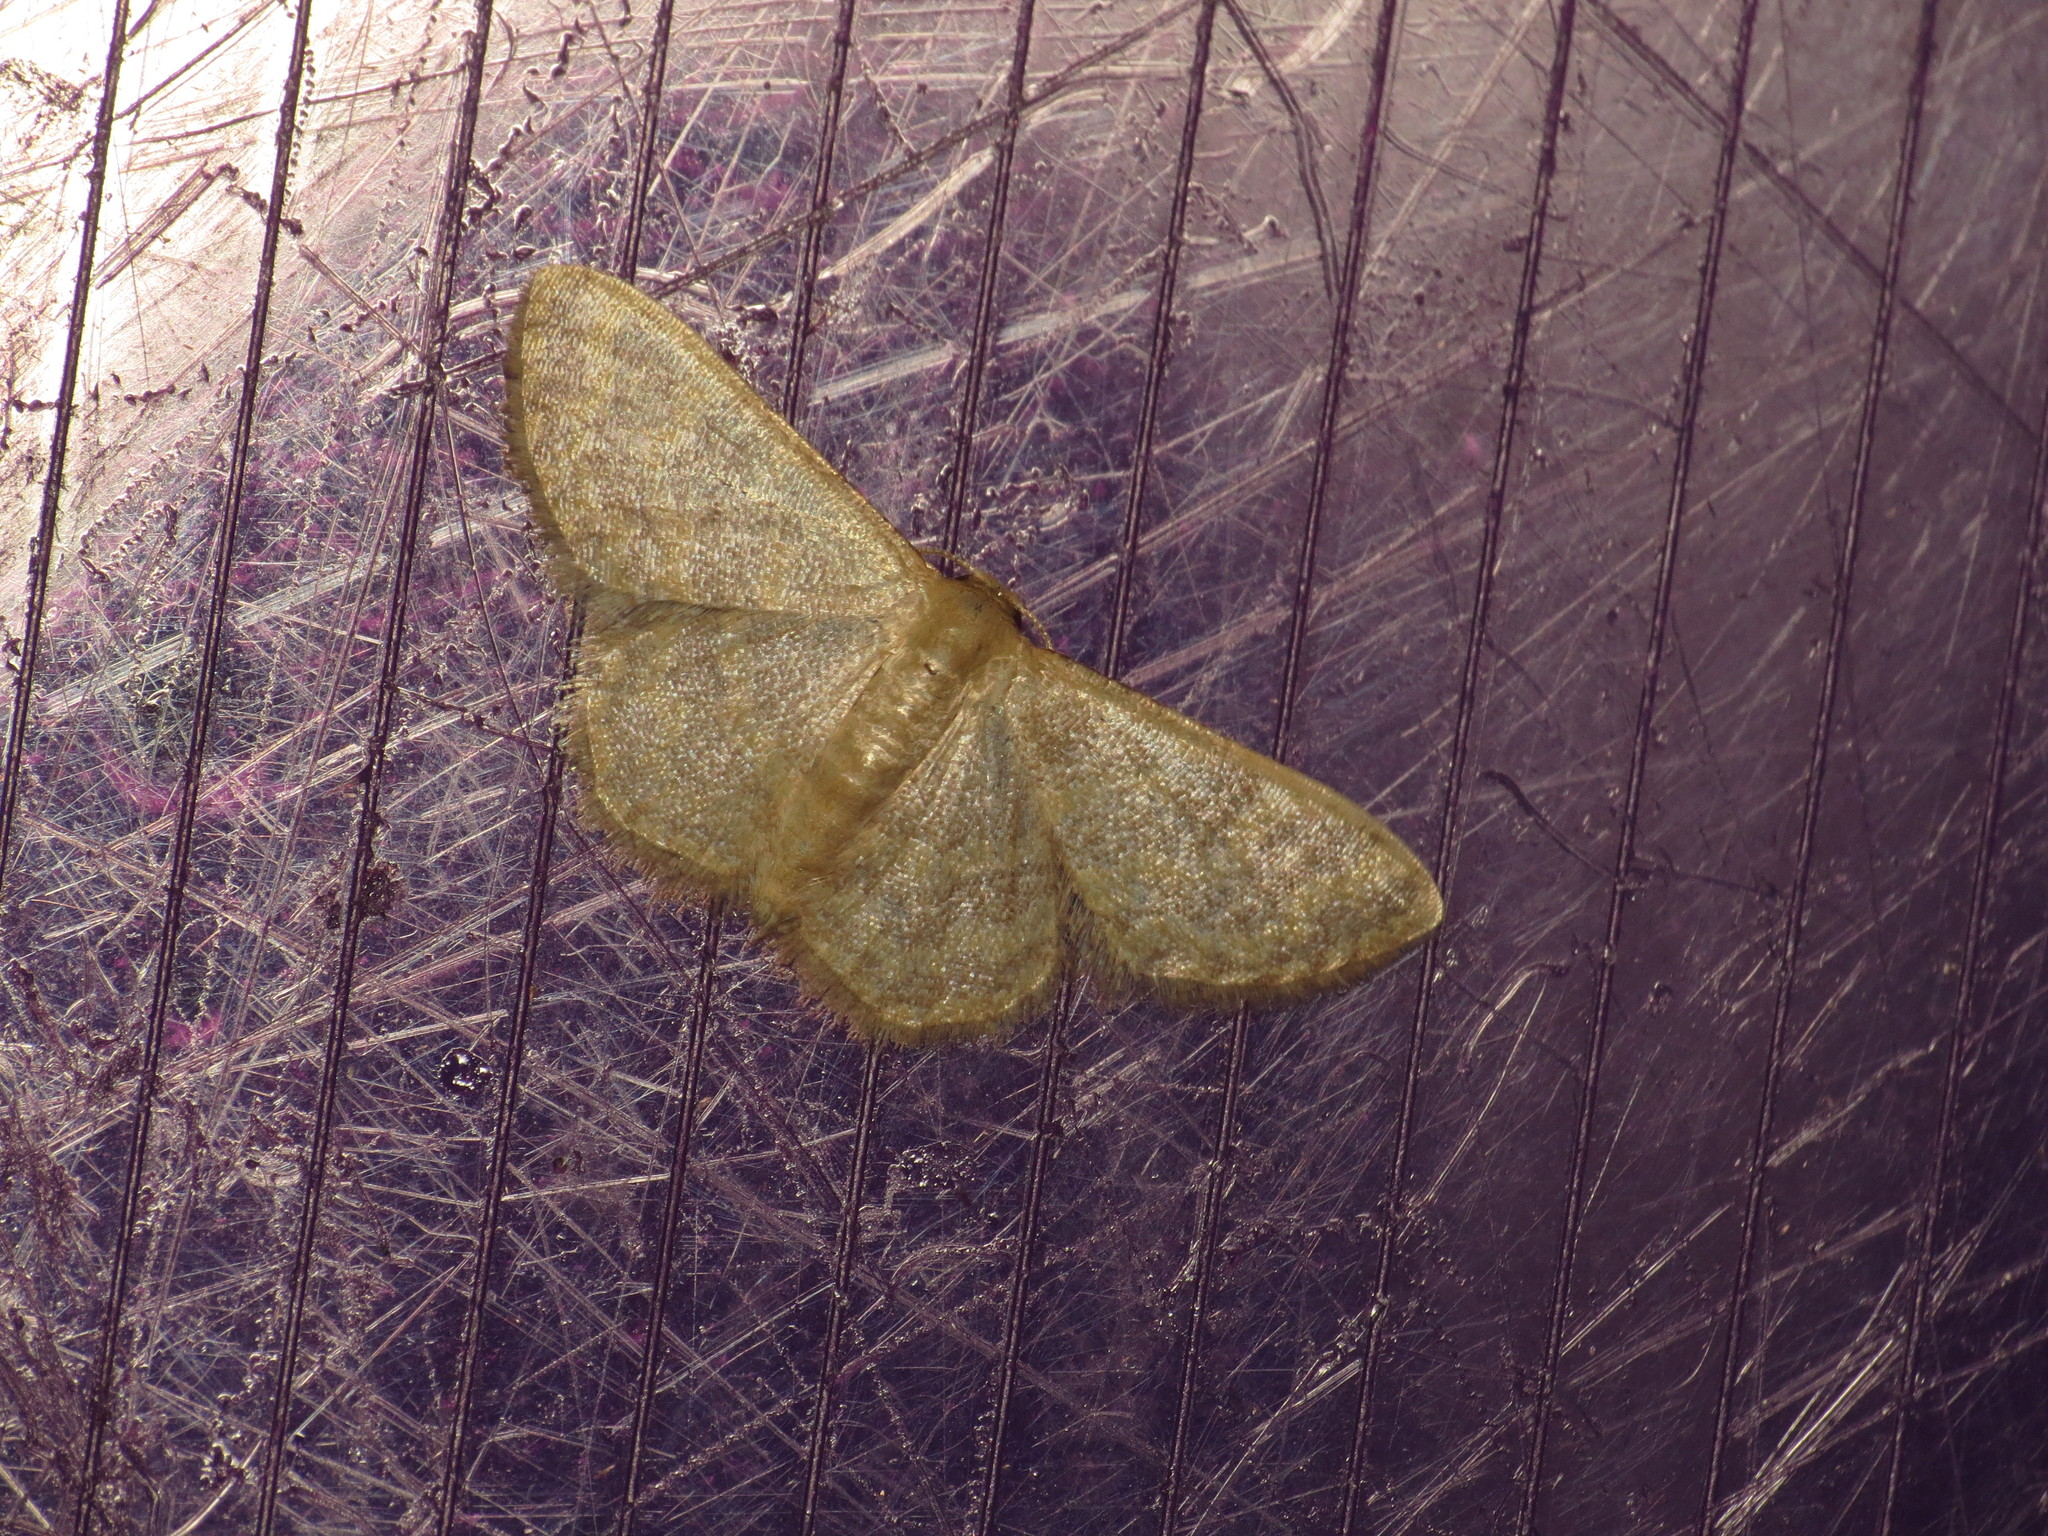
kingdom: Animalia
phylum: Arthropoda
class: Insecta
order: Lepidoptera
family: Geometridae
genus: Idaea
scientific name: Idaea simplex
